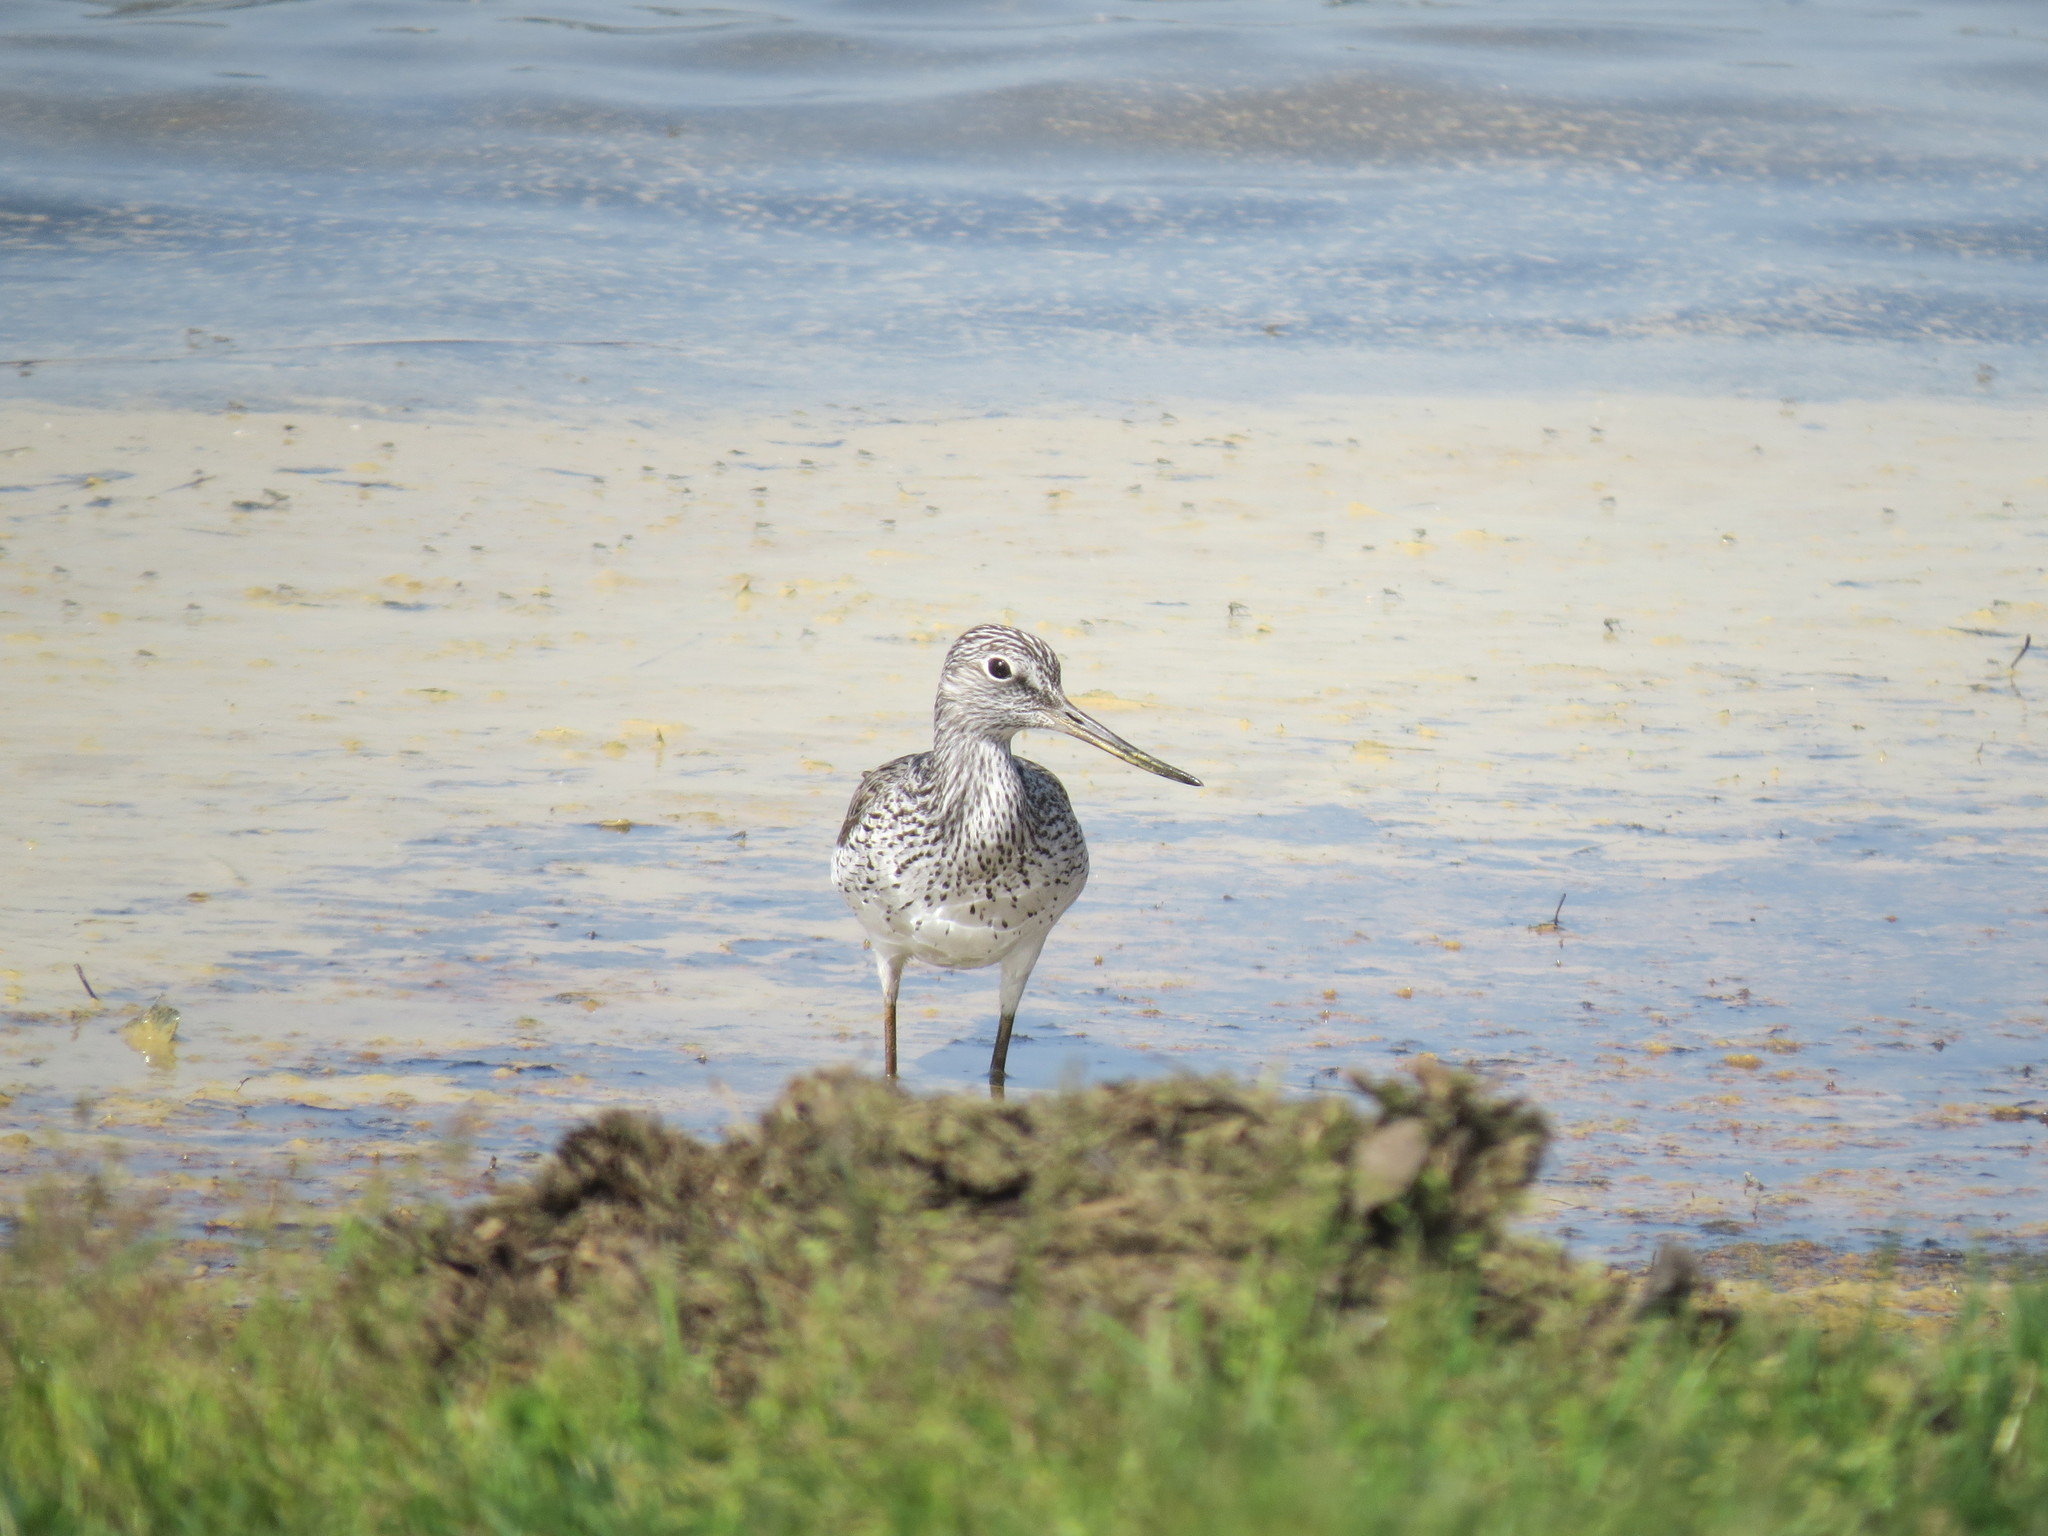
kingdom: Animalia
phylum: Chordata
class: Aves
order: Charadriiformes
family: Scolopacidae
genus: Tringa
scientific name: Tringa nebularia
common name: Common greenshank
